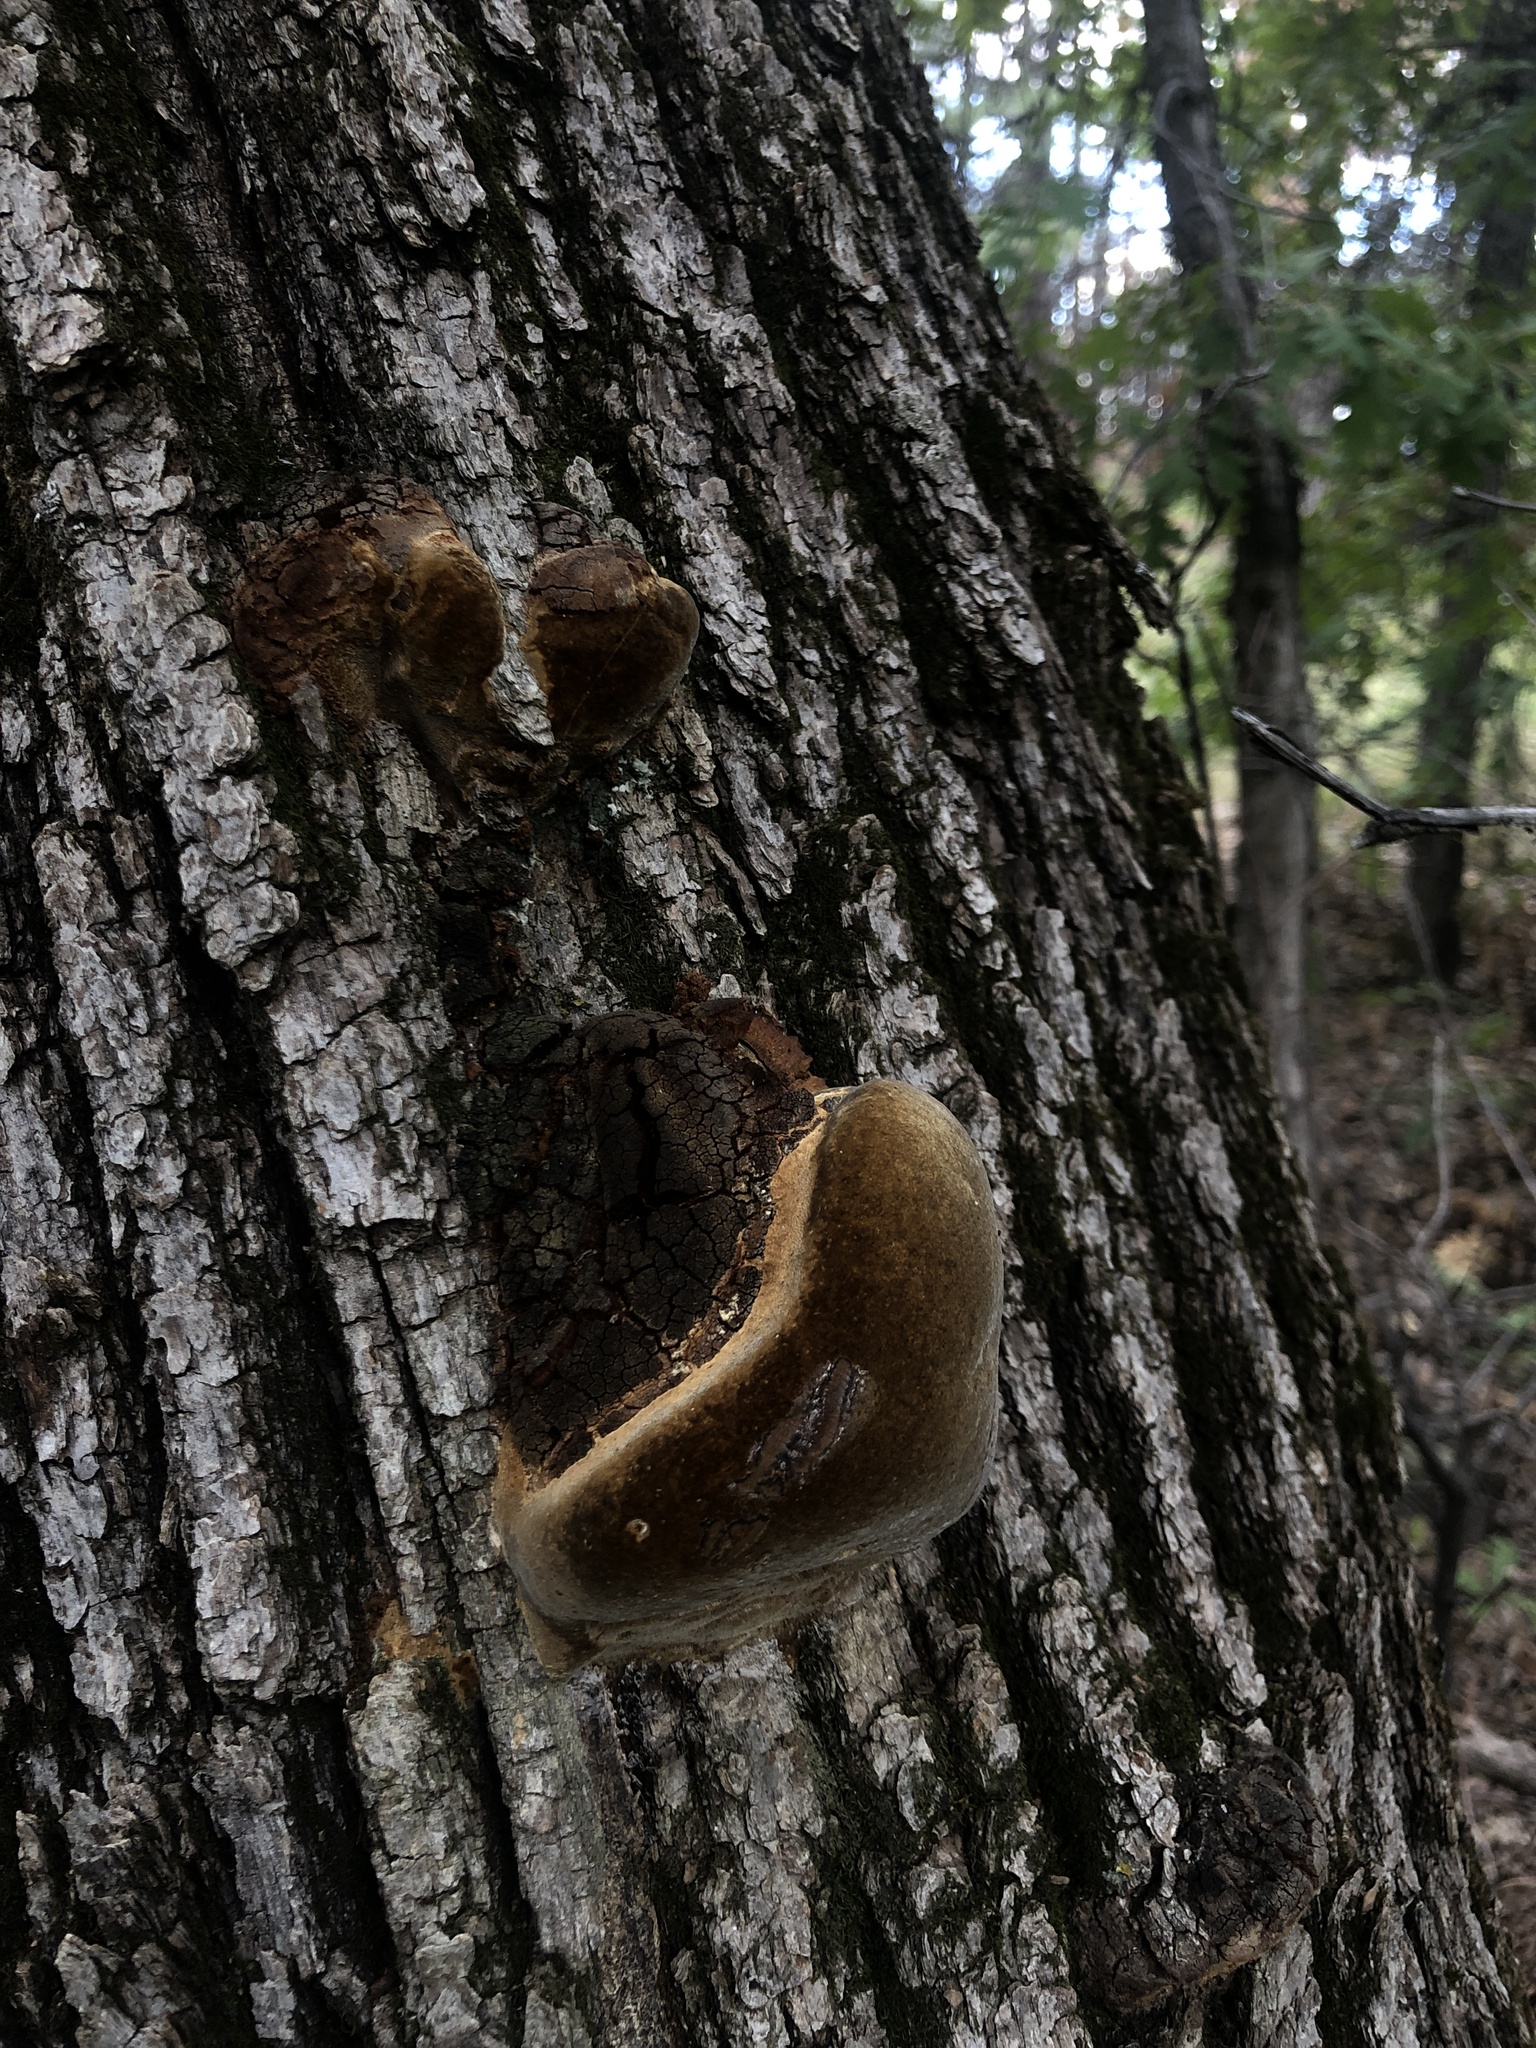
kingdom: Fungi
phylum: Basidiomycota
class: Agaricomycetes
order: Hymenochaetales
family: Hymenochaetaceae
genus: Meganotus
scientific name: Meganotus everhartii
